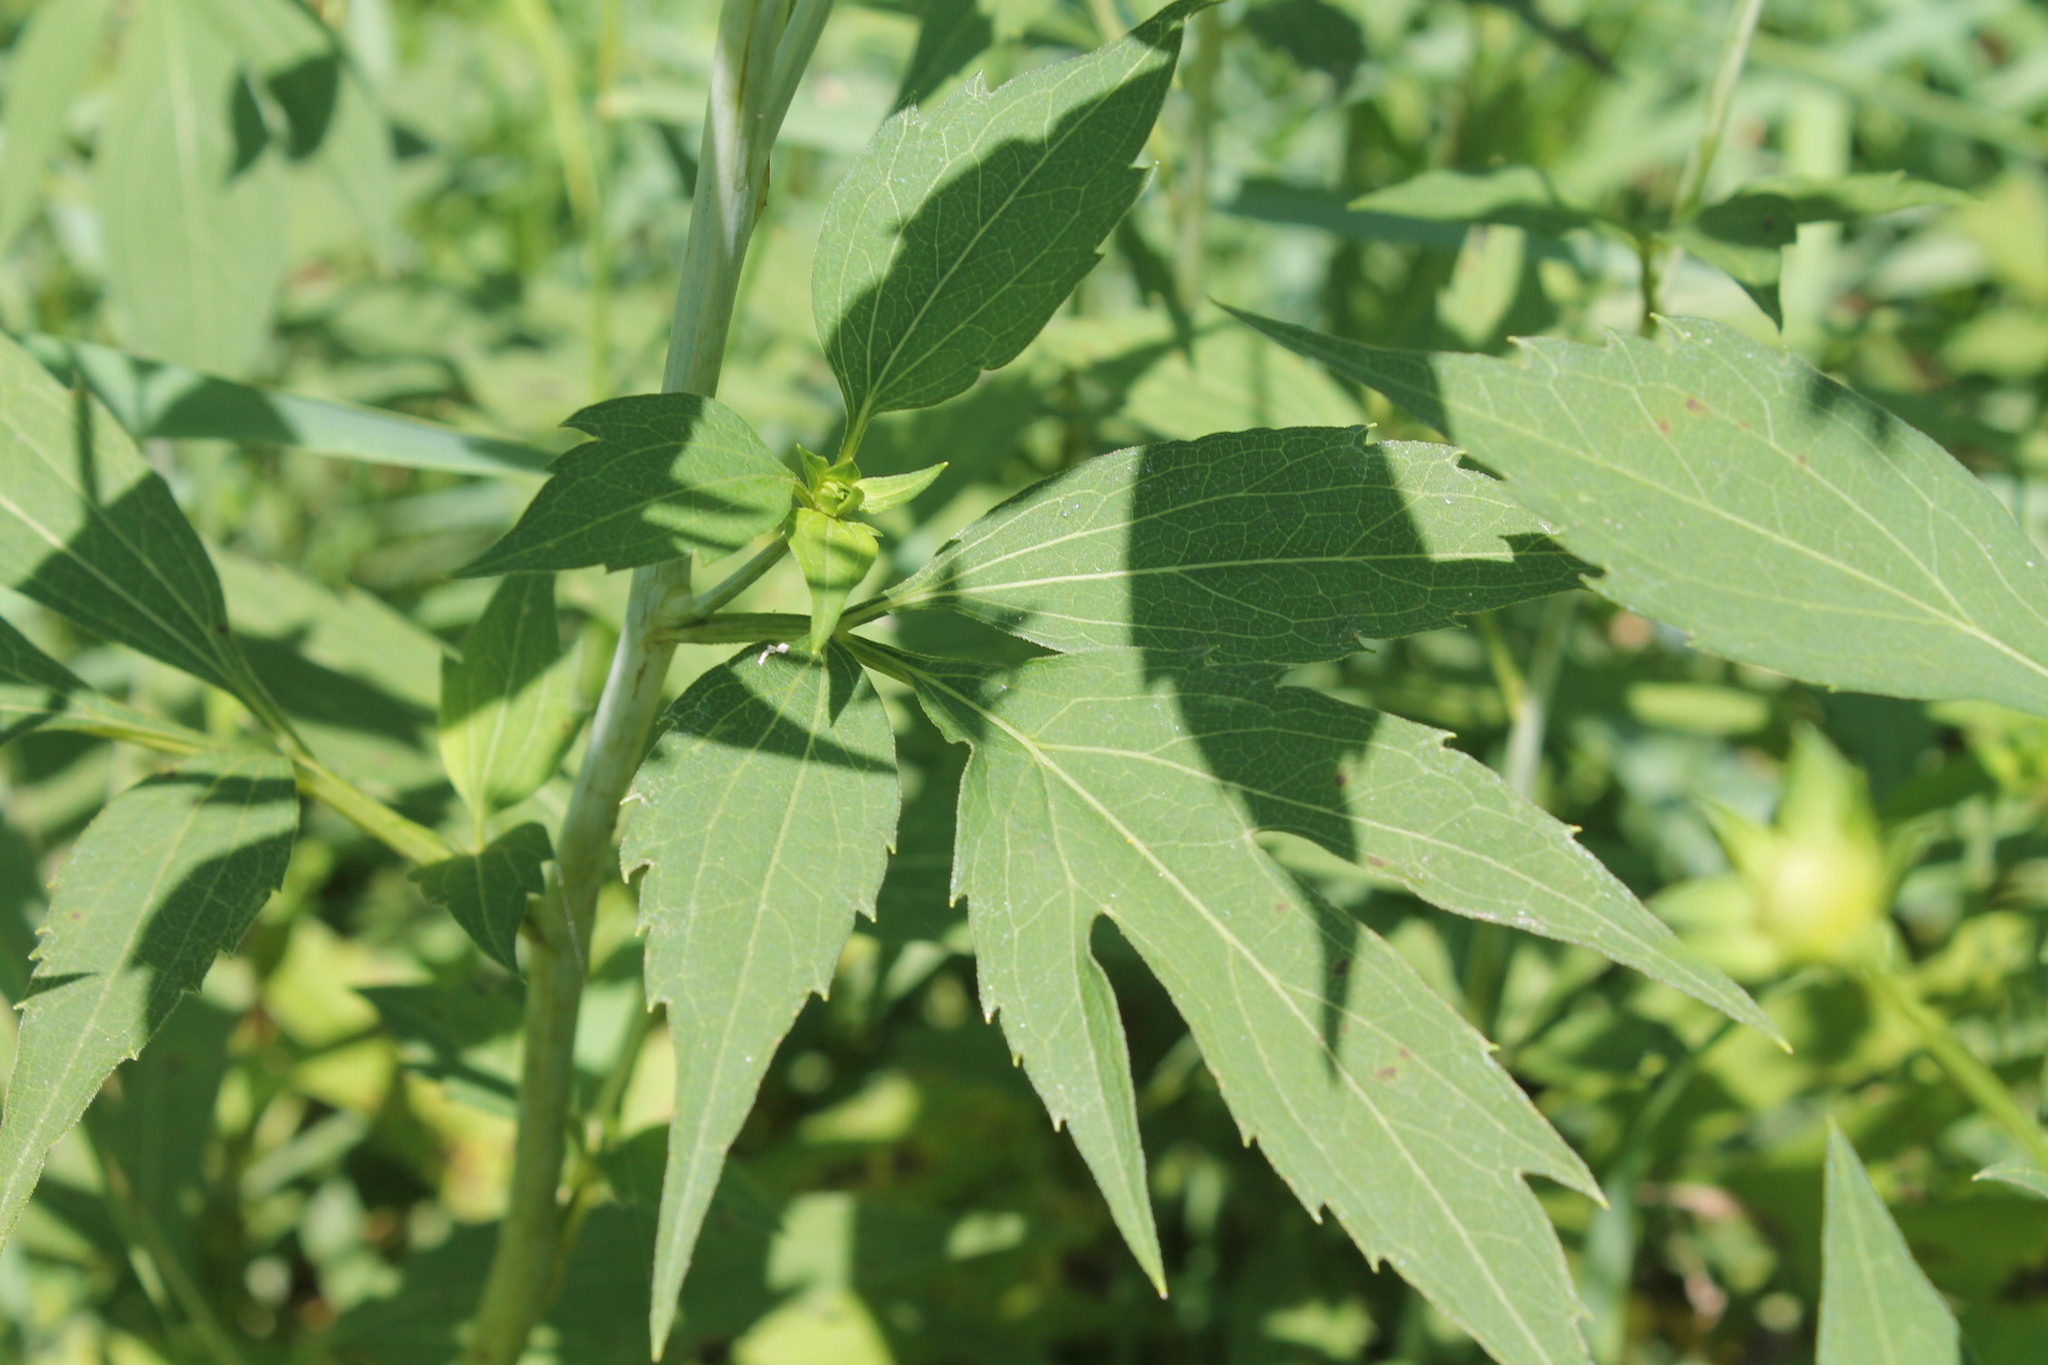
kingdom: Plantae
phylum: Tracheophyta
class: Magnoliopsida
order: Asterales
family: Asteraceae
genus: Rudbeckia
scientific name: Rudbeckia laciniata
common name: Coneflower
